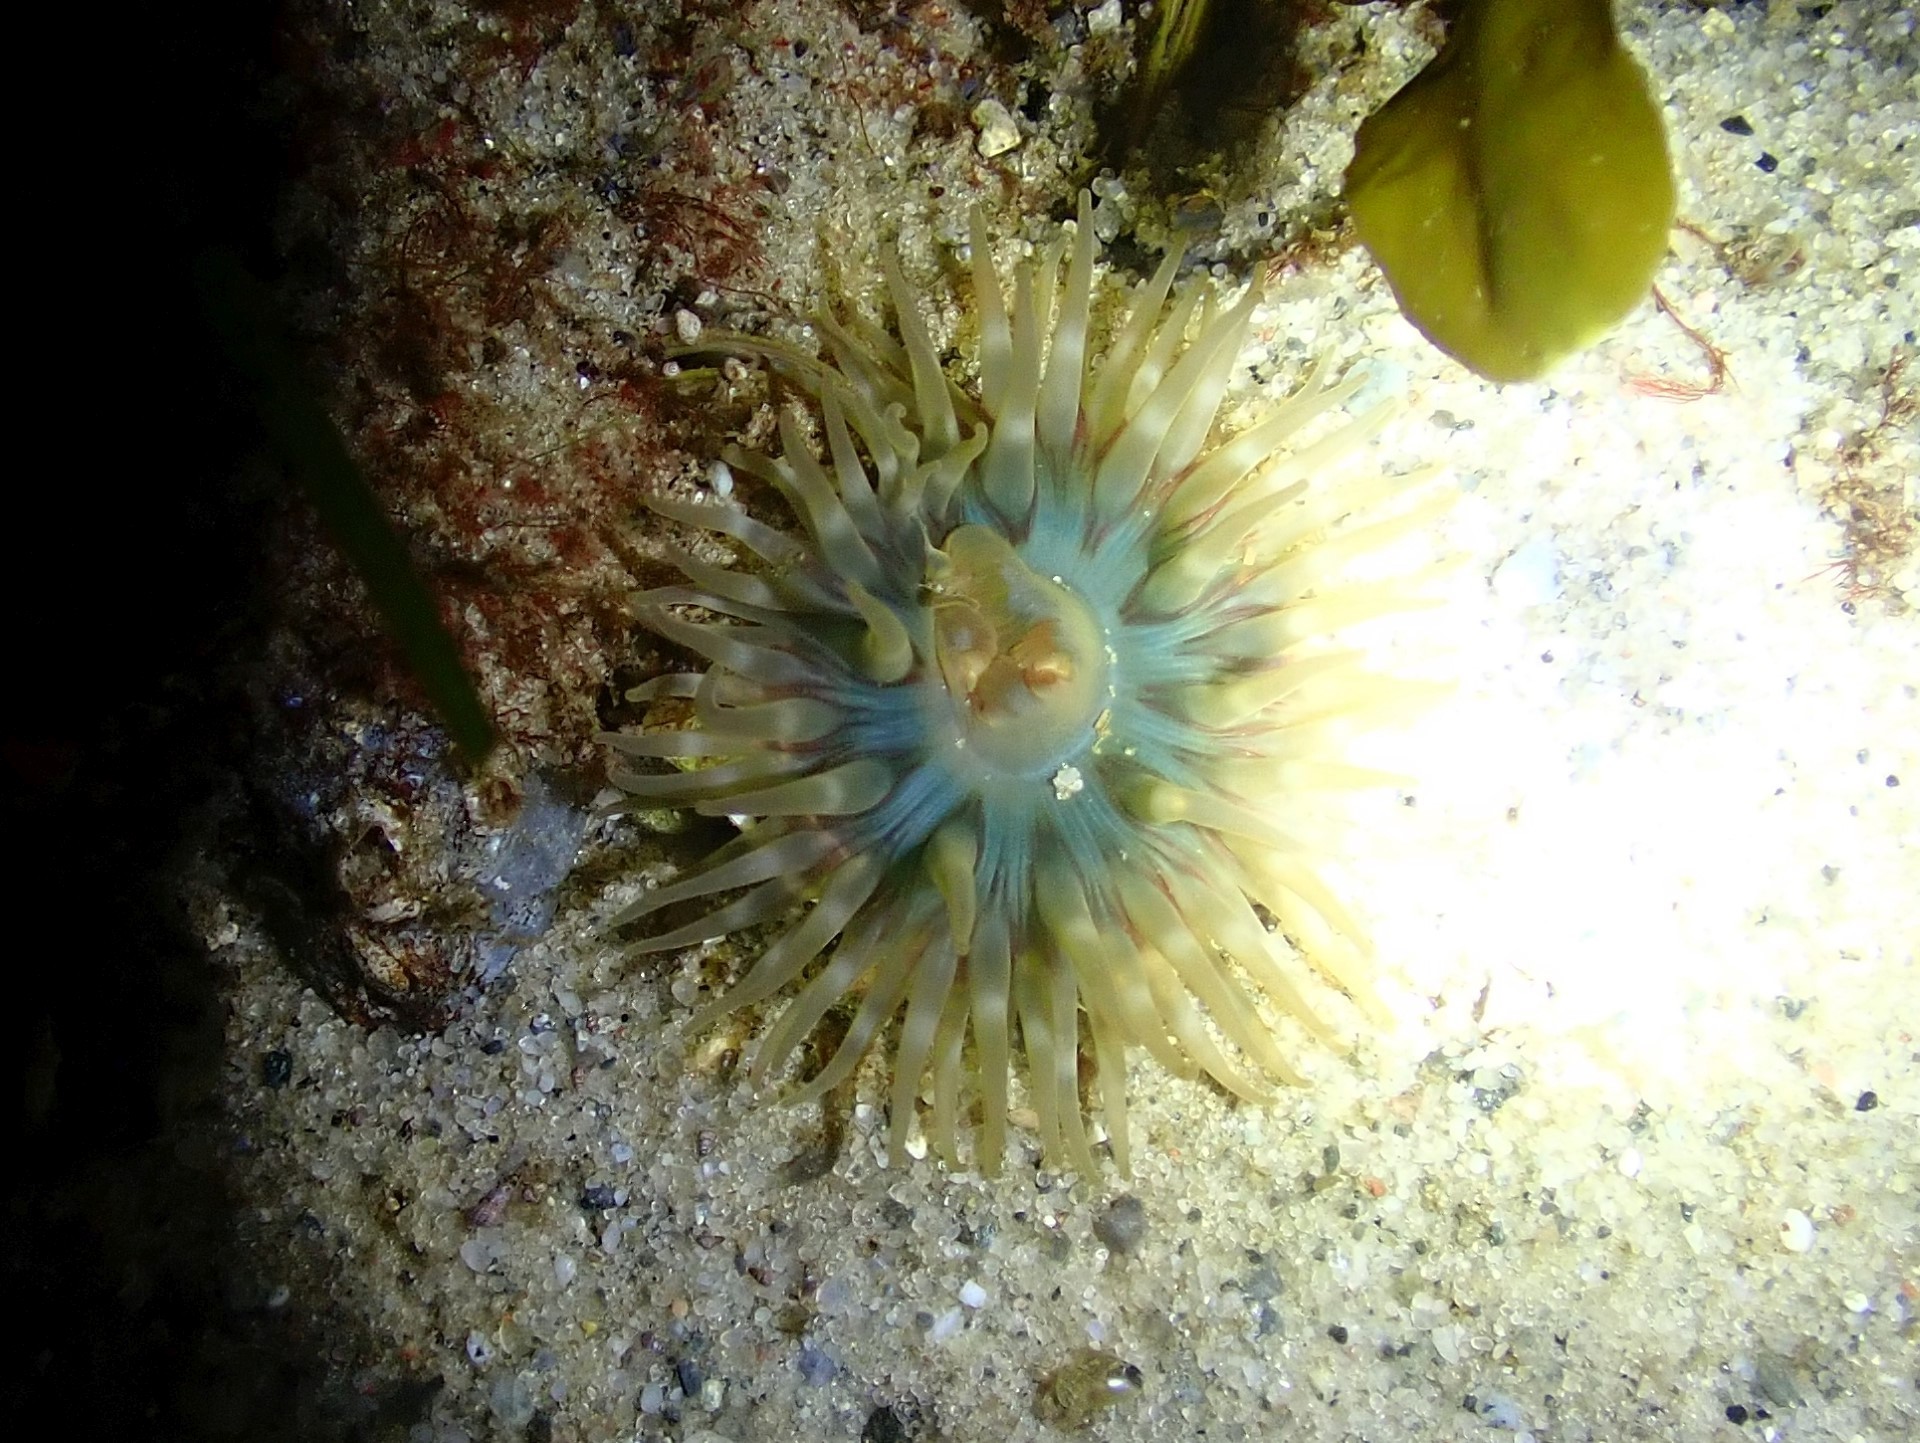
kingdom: Animalia
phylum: Cnidaria
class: Anthozoa
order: Actiniaria
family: Actiniidae
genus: Urticina
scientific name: Urticina felina
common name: Dahlia anemone
